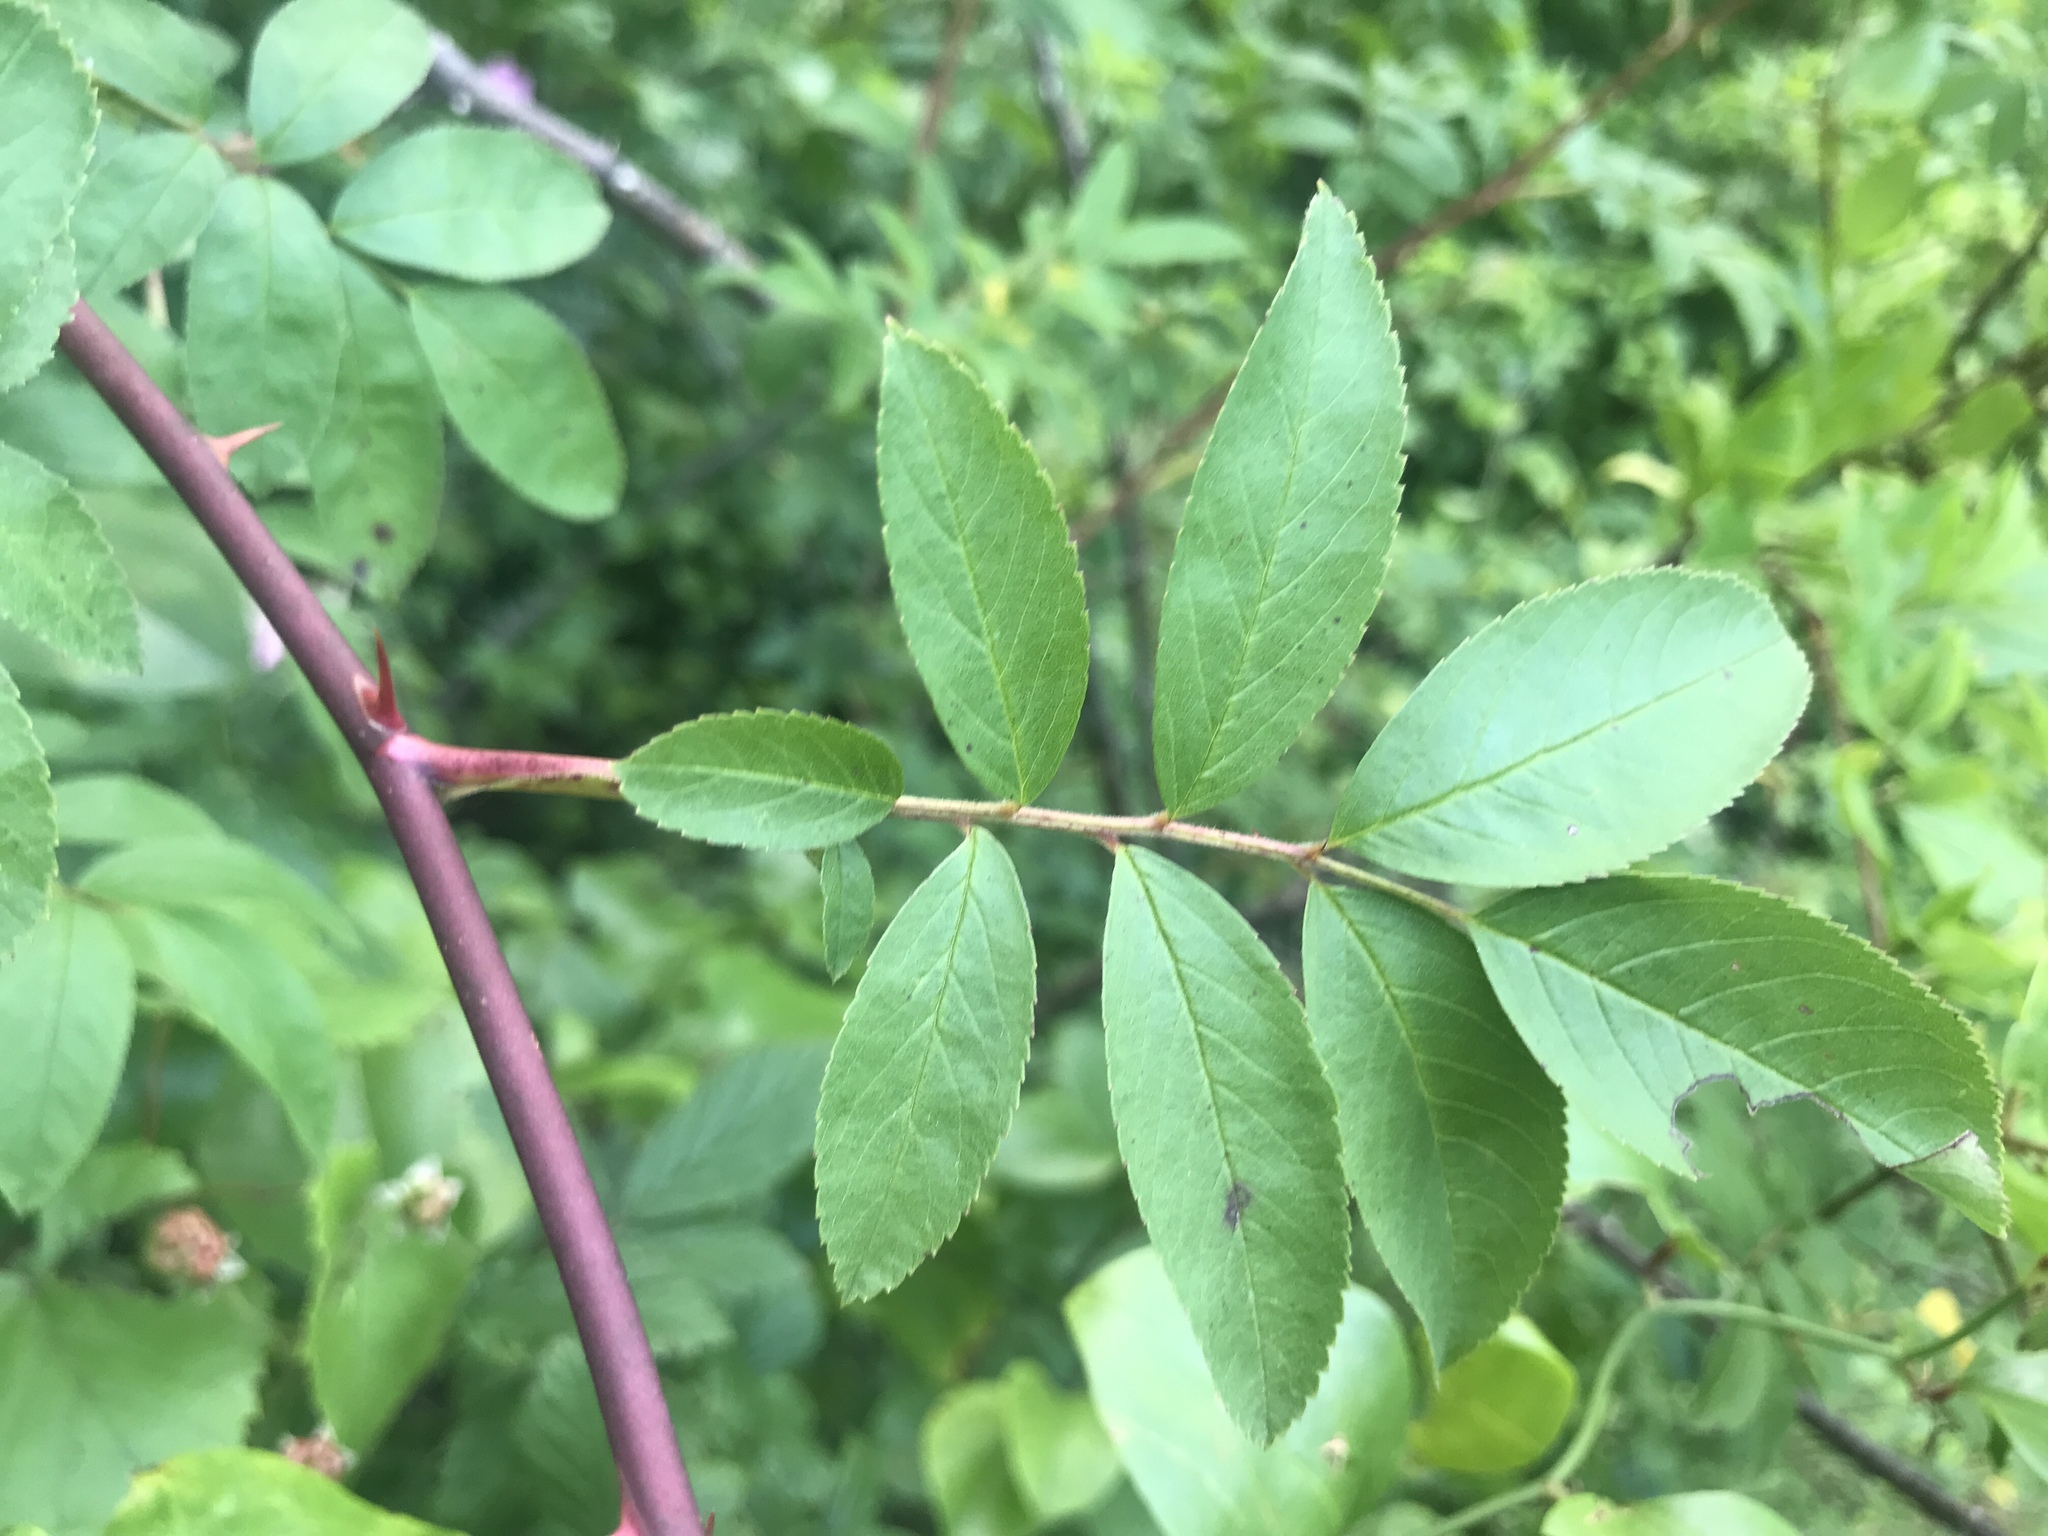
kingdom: Plantae
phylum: Tracheophyta
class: Magnoliopsida
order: Rosales
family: Rosaceae
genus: Rosa
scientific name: Rosa palustris
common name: Swamp rose
